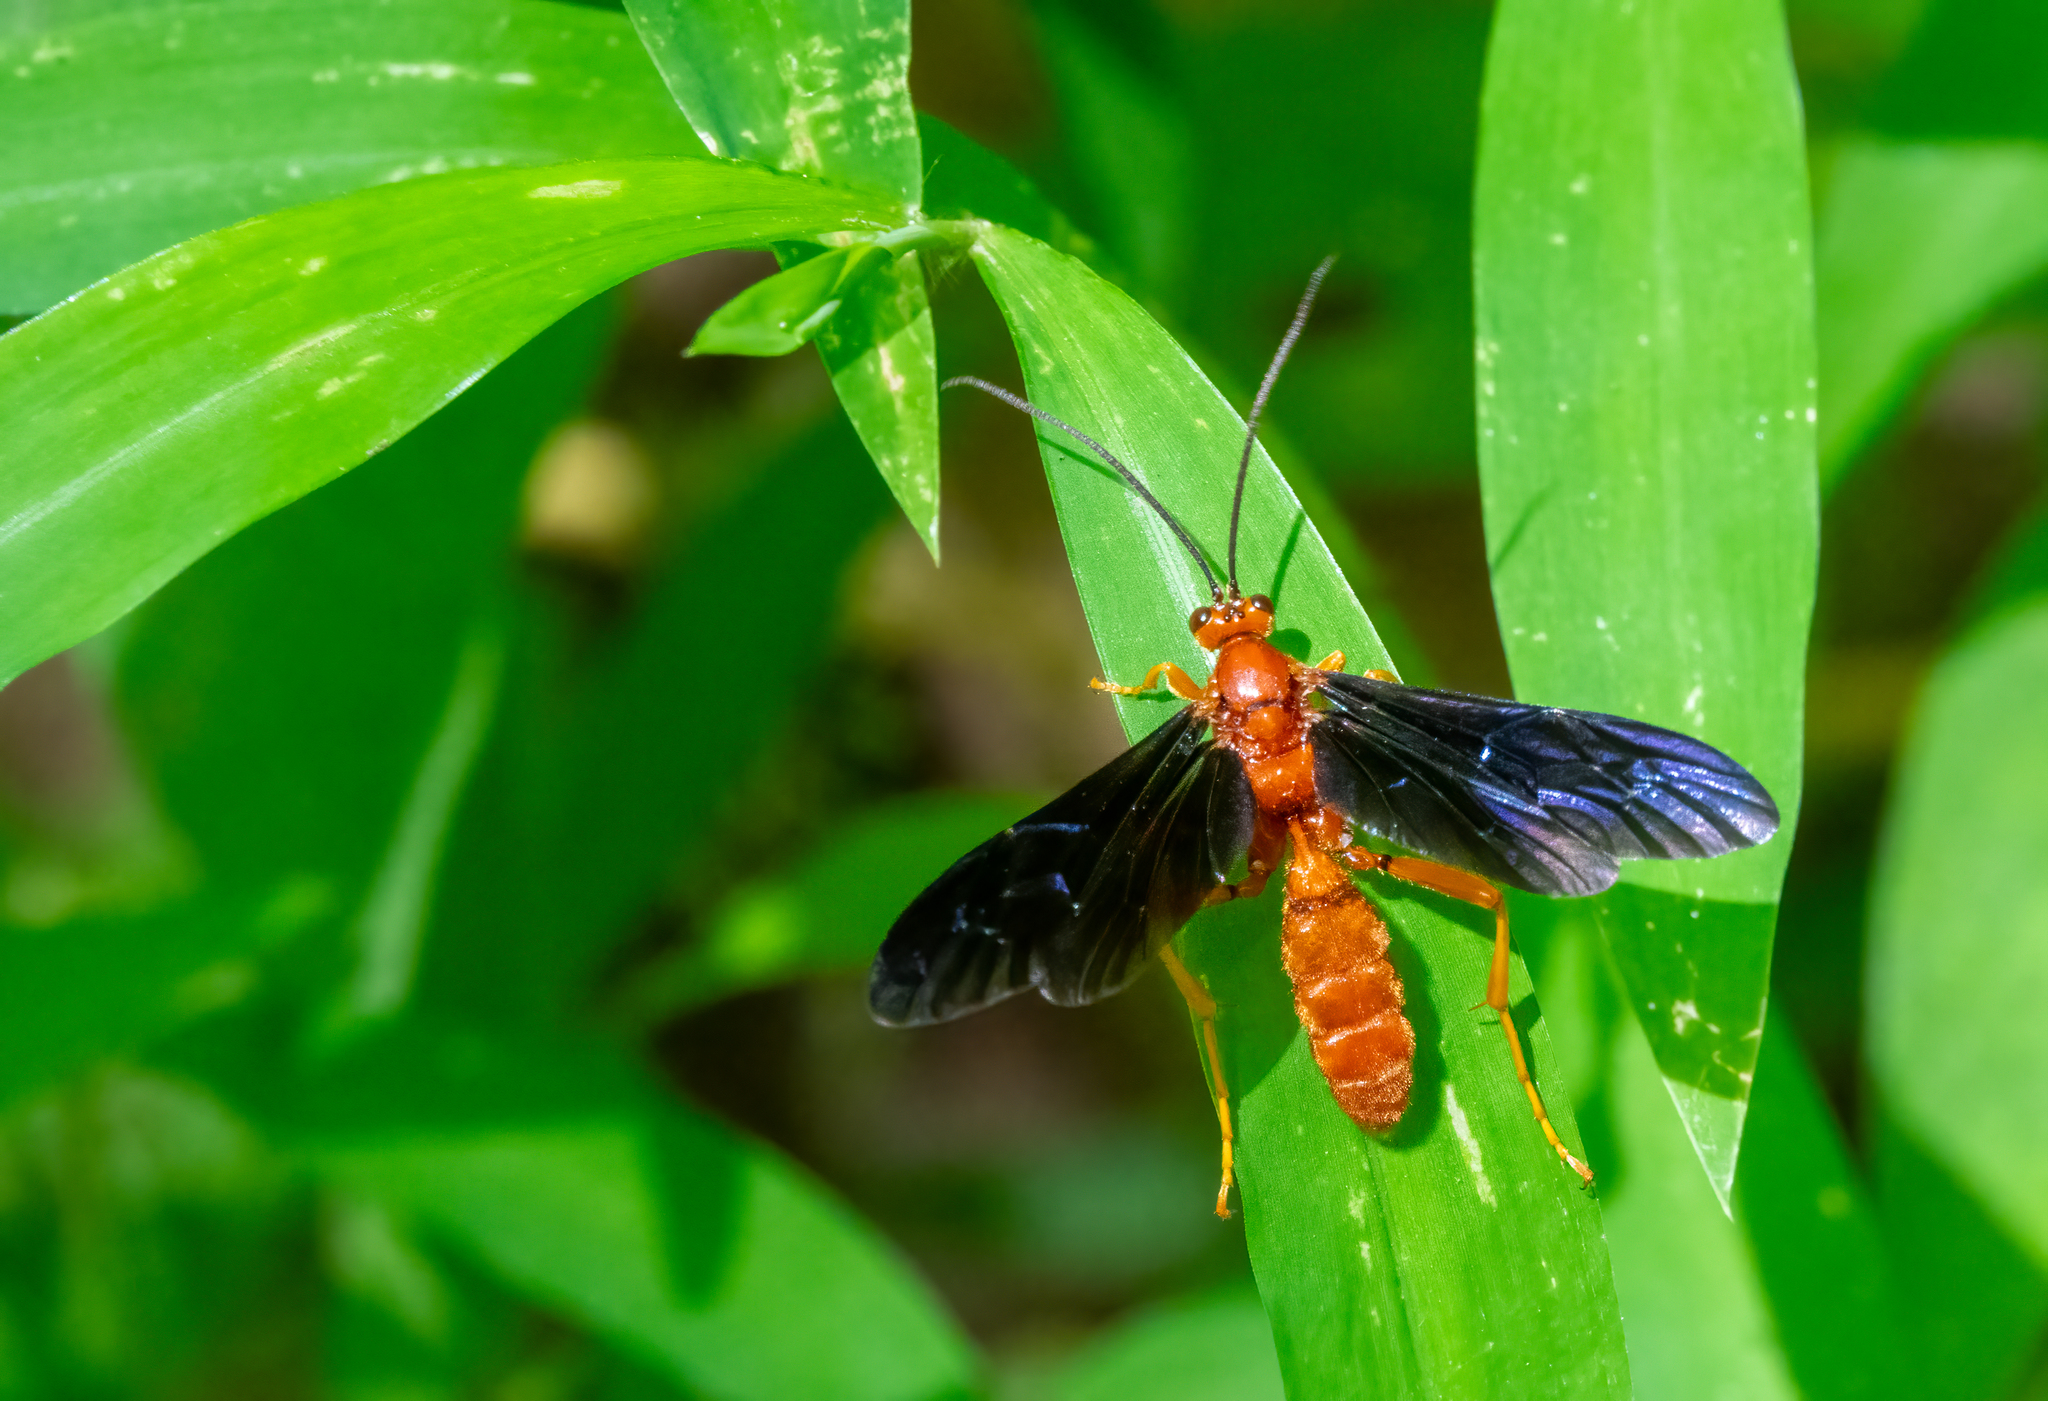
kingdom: Animalia
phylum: Arthropoda
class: Insecta
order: Hymenoptera
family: Ichneumonidae
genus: Trogus
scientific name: Trogus pennator
